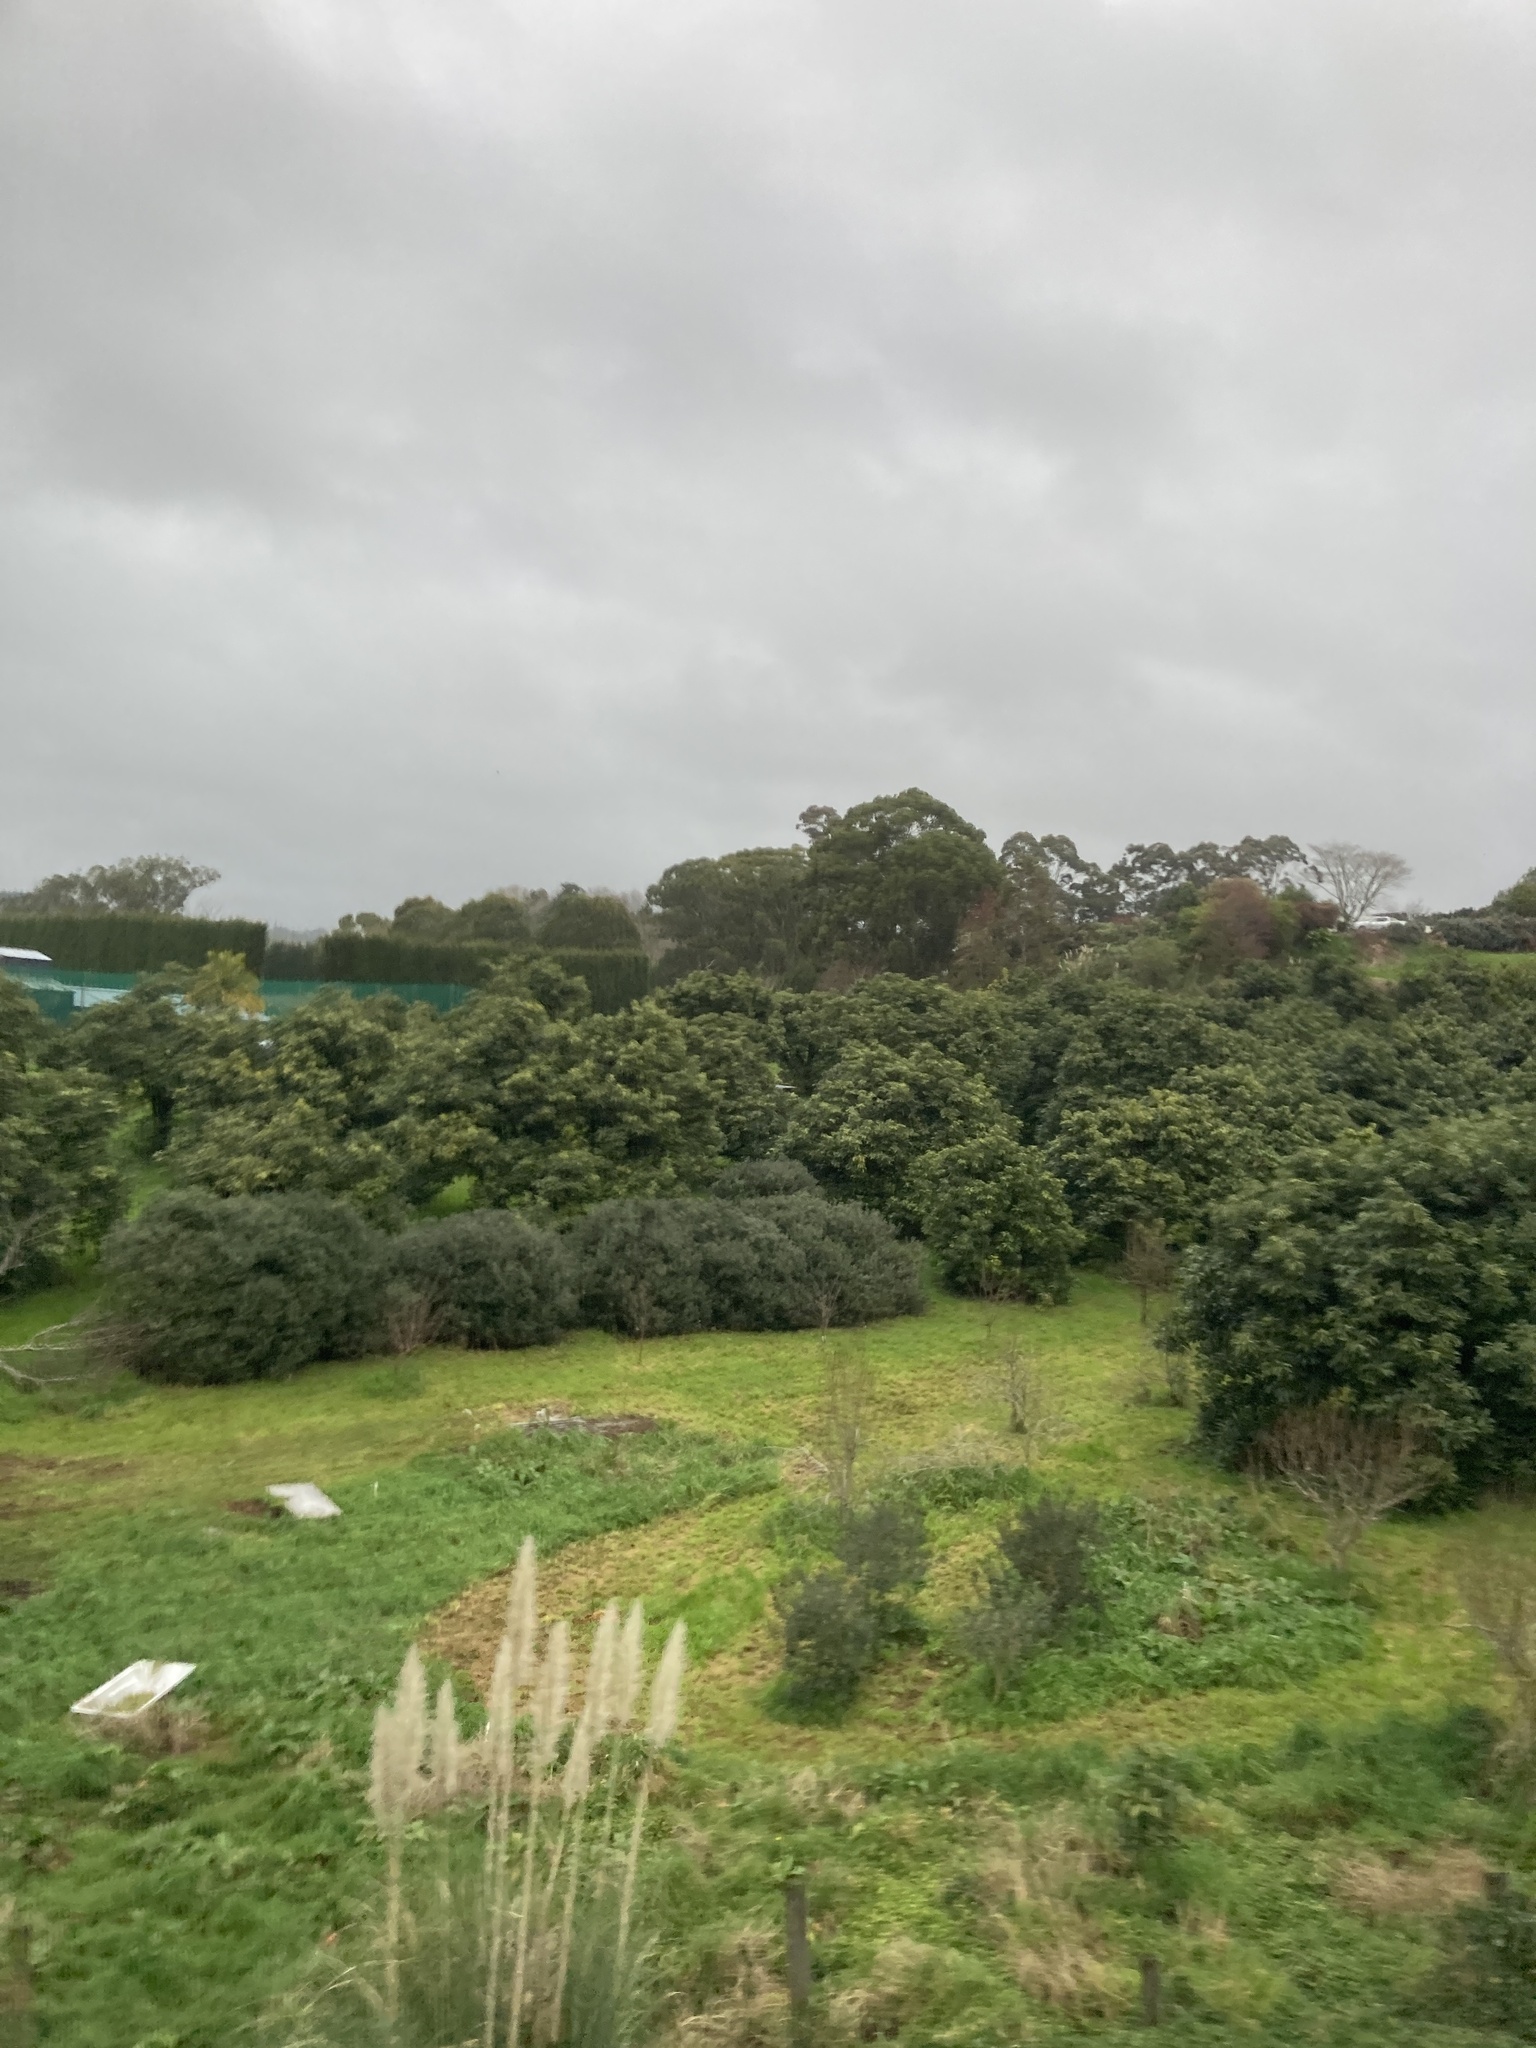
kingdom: Plantae
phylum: Tracheophyta
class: Liliopsida
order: Poales
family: Poaceae
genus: Cortaderia
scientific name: Cortaderia selloana
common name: Uruguayan pampas grass
